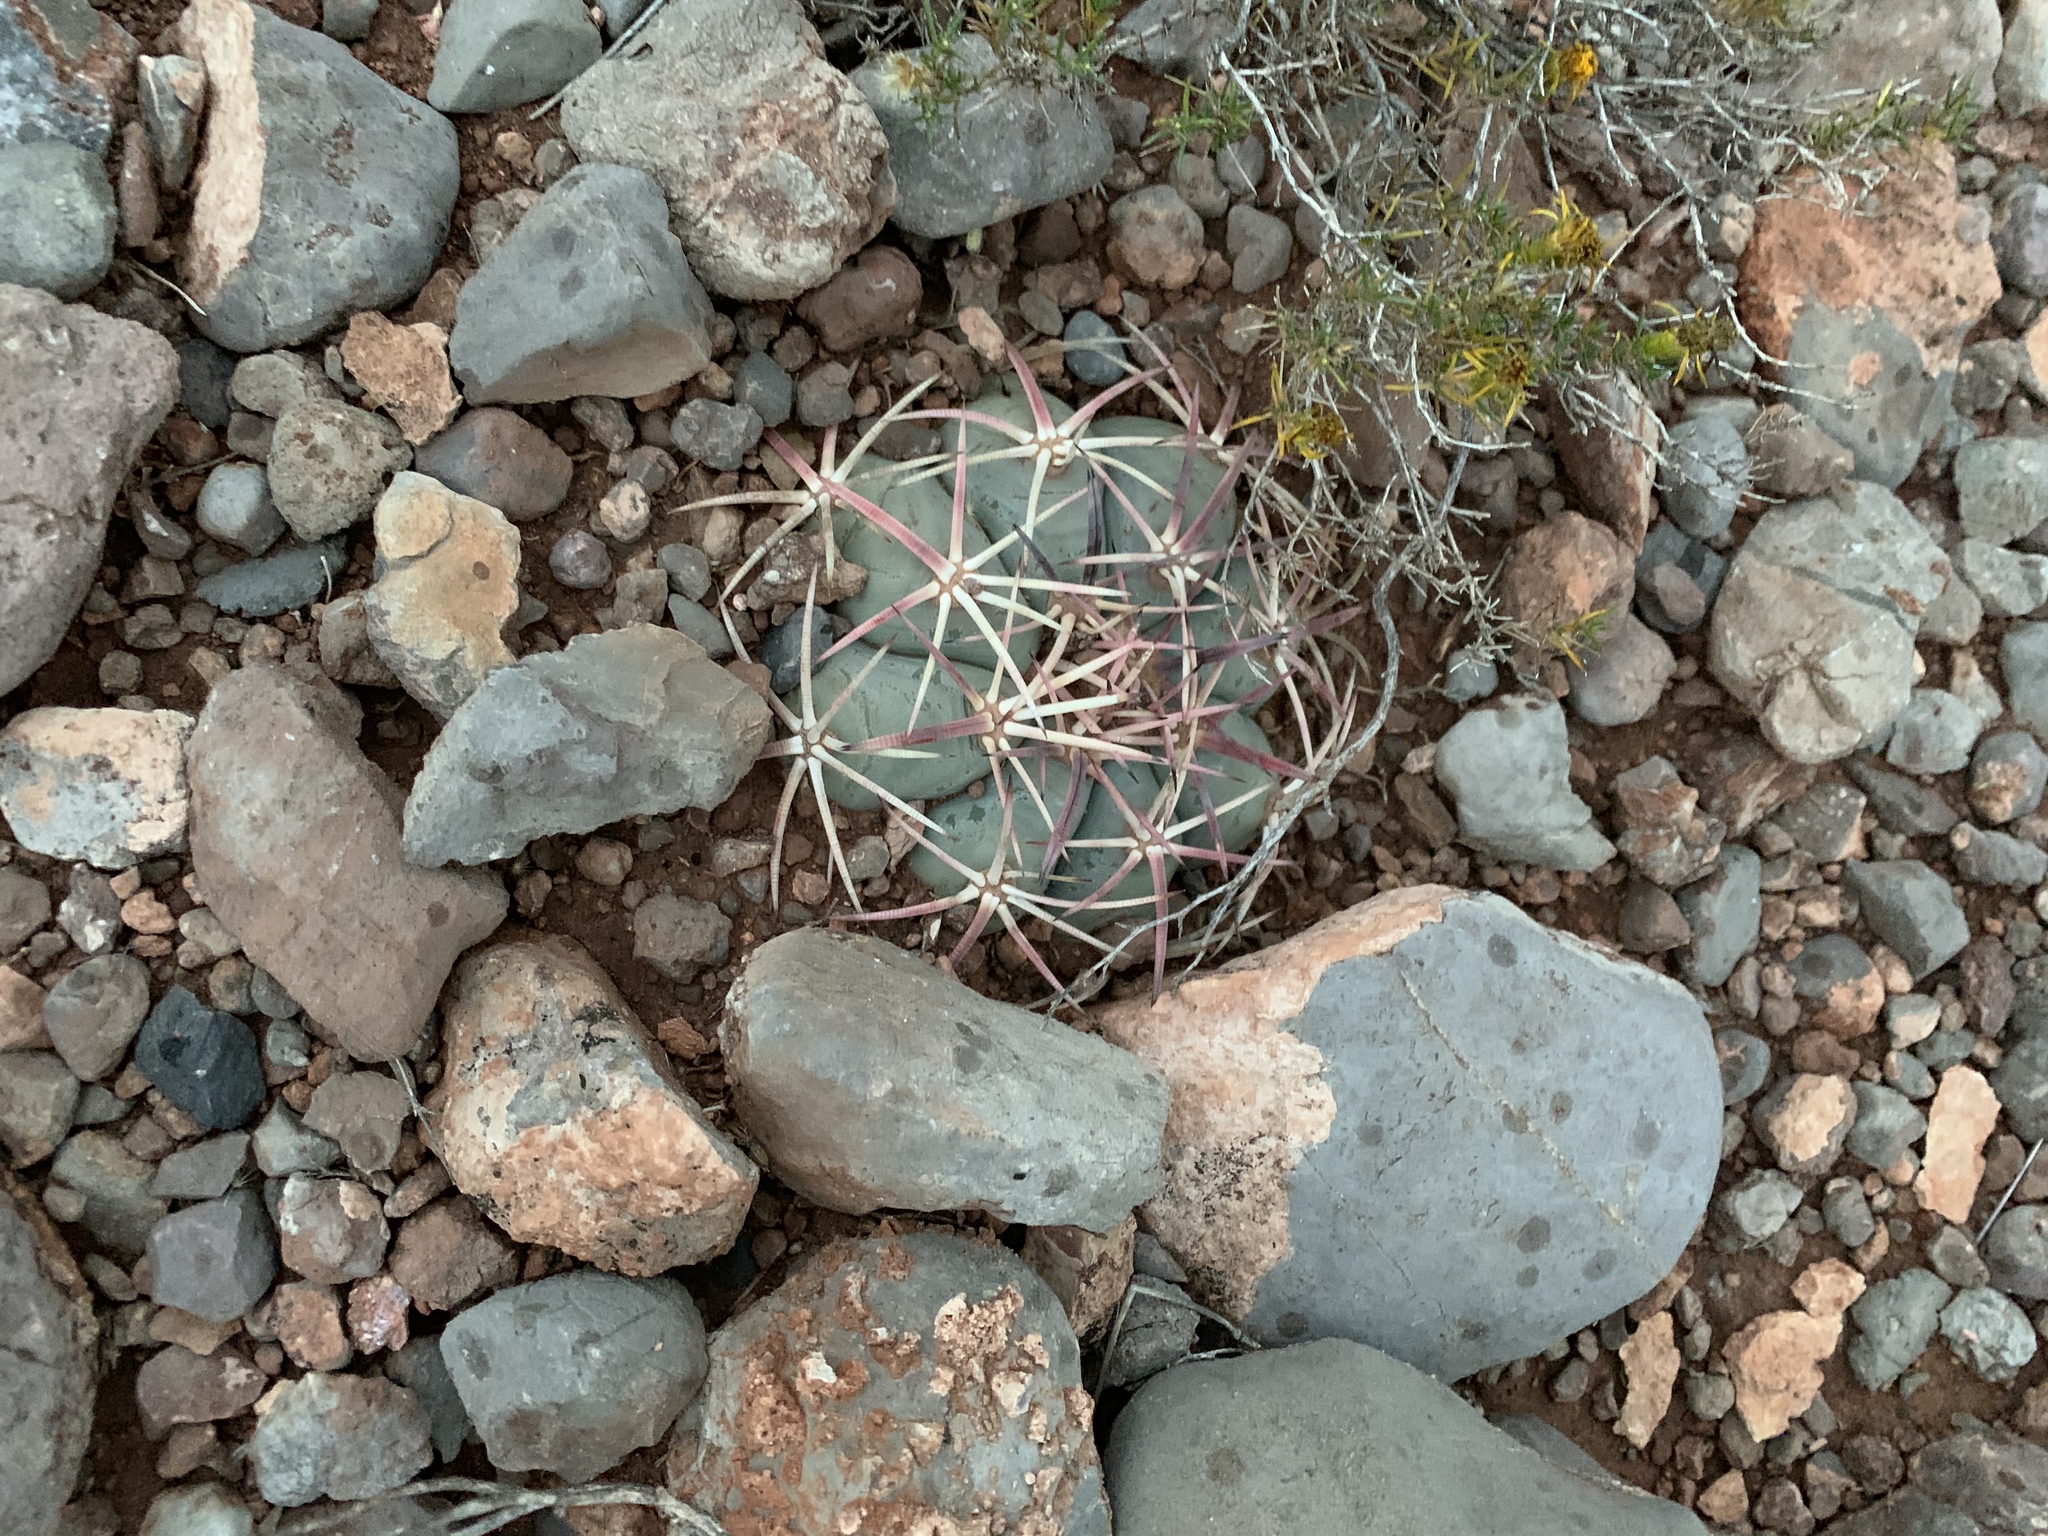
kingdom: Plantae
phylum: Tracheophyta
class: Magnoliopsida
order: Caryophyllales
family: Cactaceae
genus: Echinocactus
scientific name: Echinocactus horizonthalonius
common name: Devilshead
